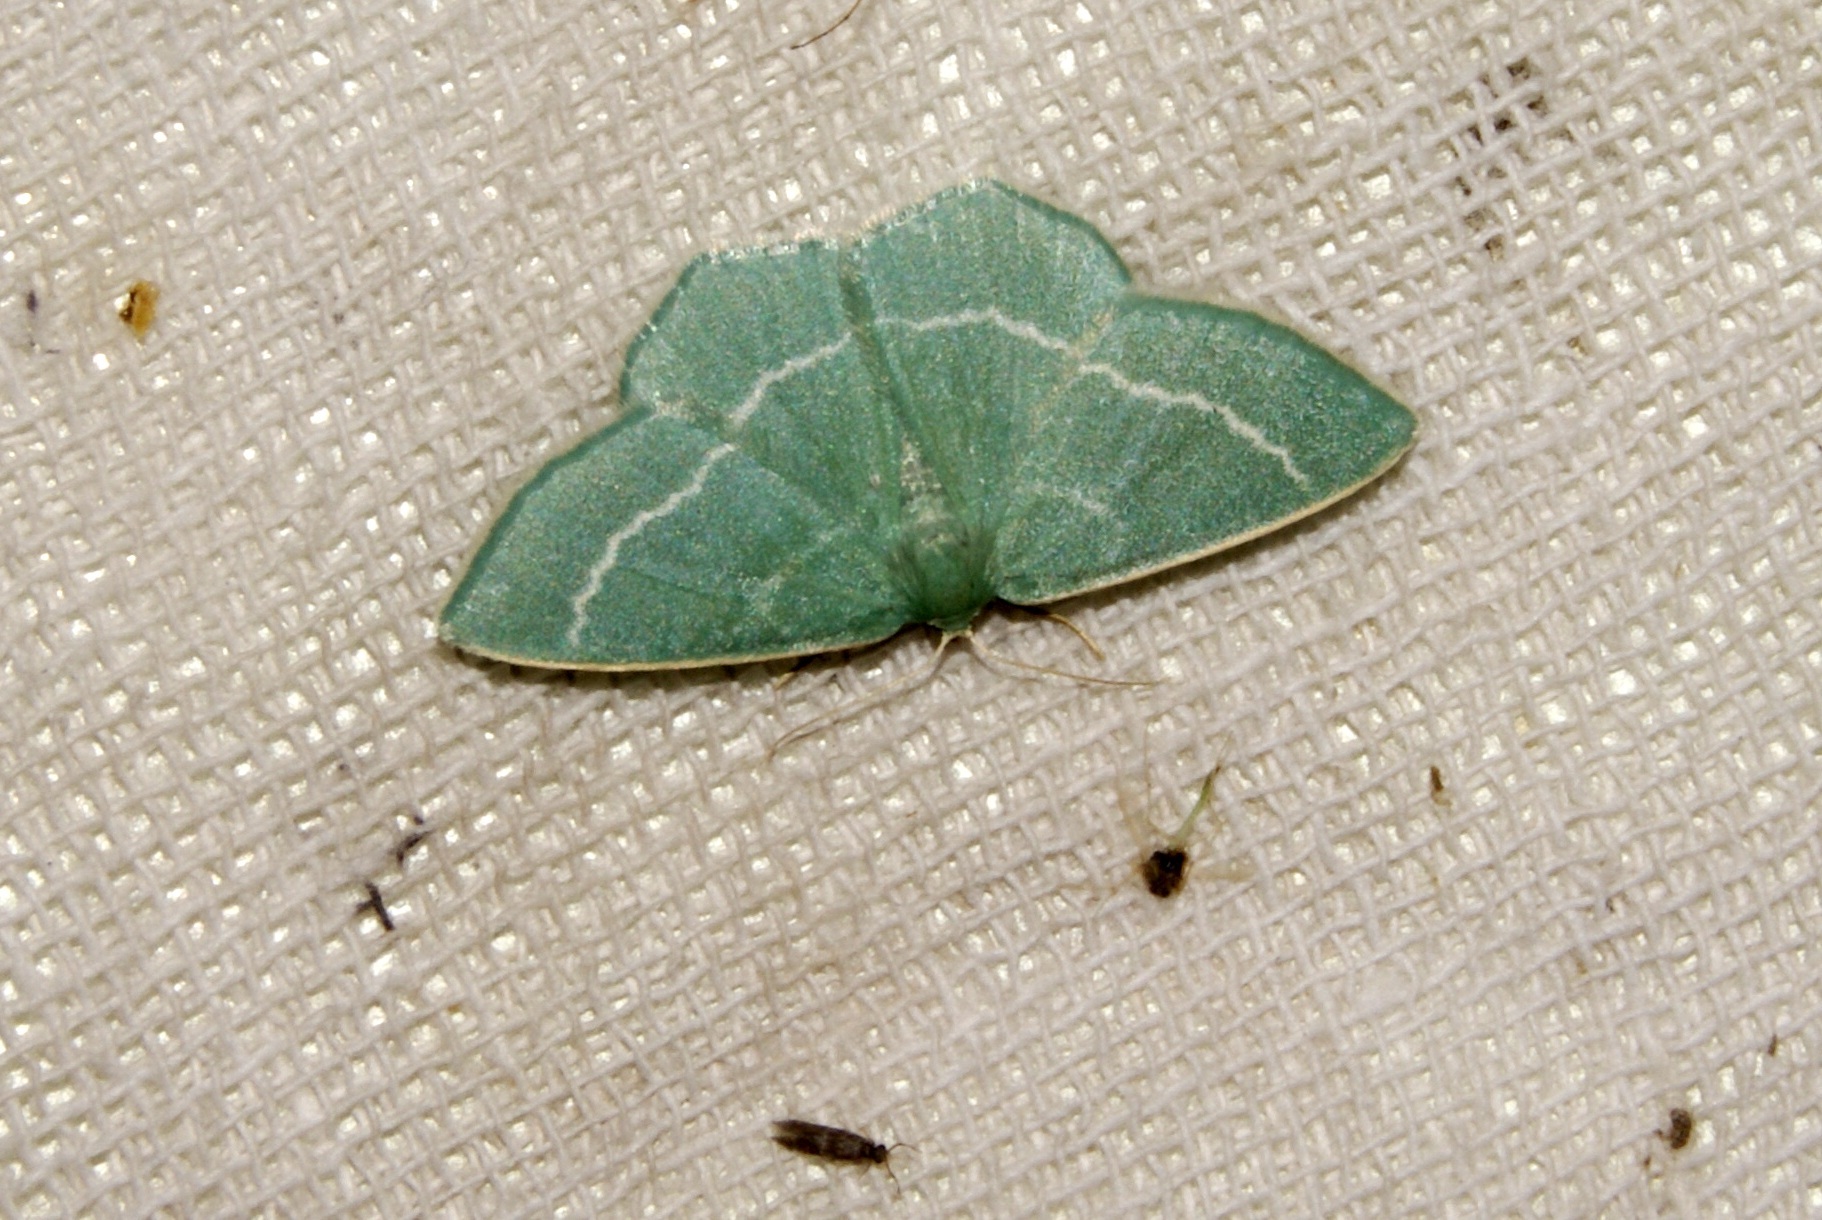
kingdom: Animalia
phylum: Arthropoda
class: Insecta
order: Lepidoptera
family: Geometridae
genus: Chlorissa
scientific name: Chlorissa viridata
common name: Small grass emerald
